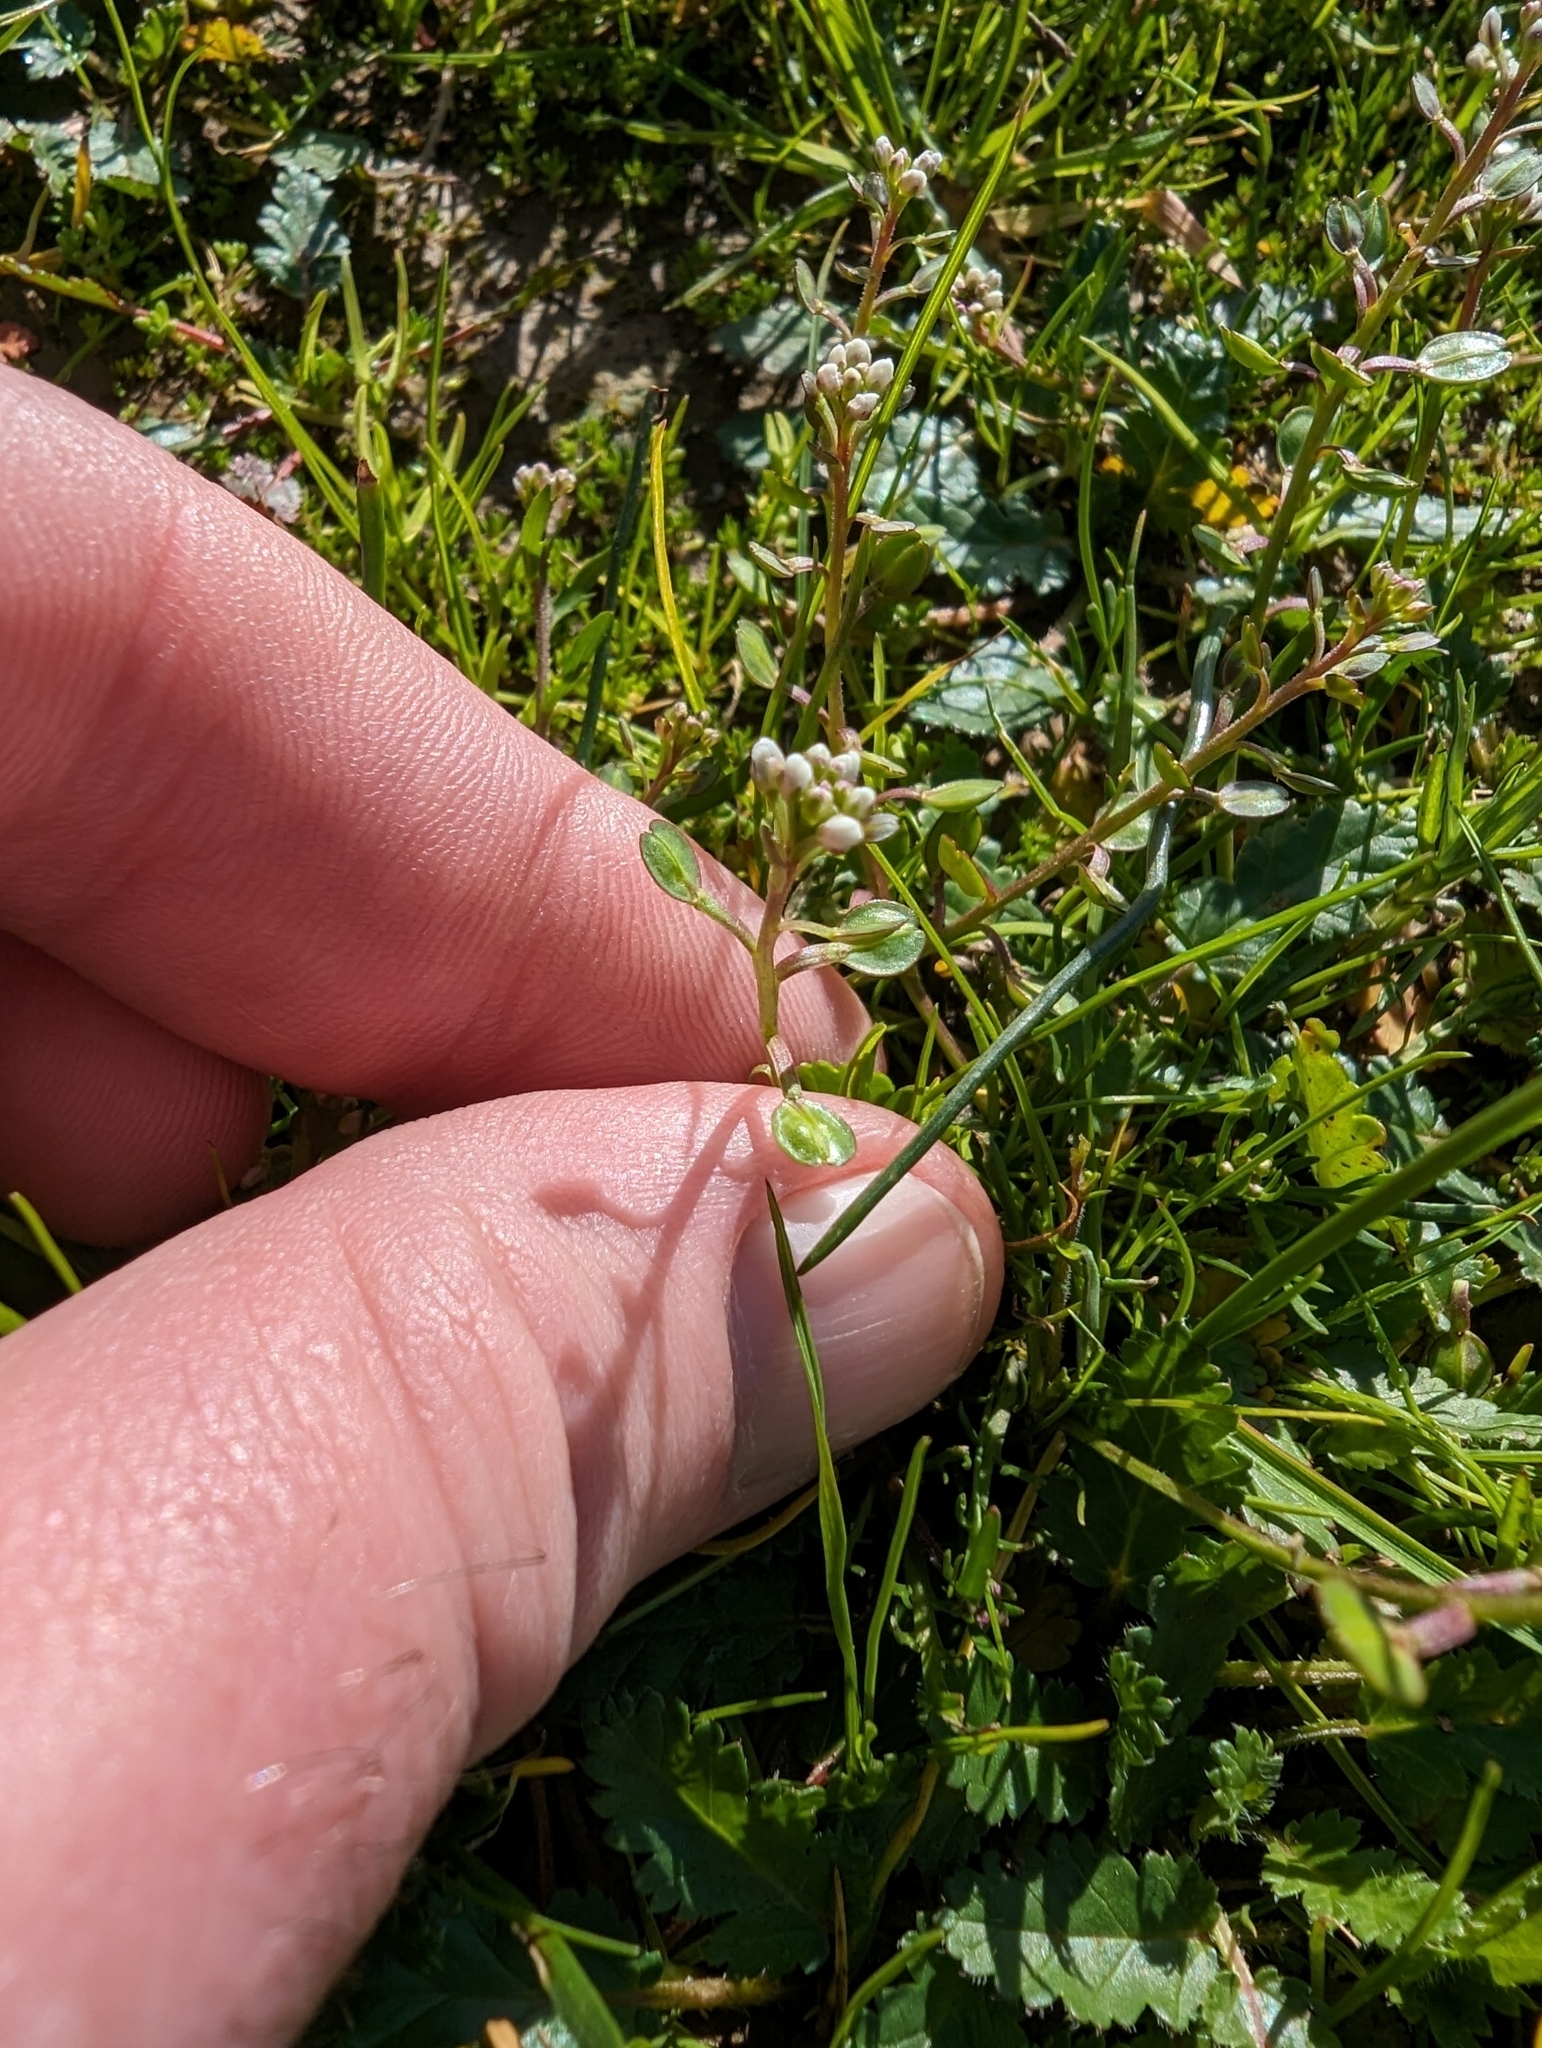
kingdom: Plantae
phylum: Tracheophyta
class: Magnoliopsida
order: Brassicales
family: Brassicaceae
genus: Lepidium
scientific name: Lepidium nitidum
